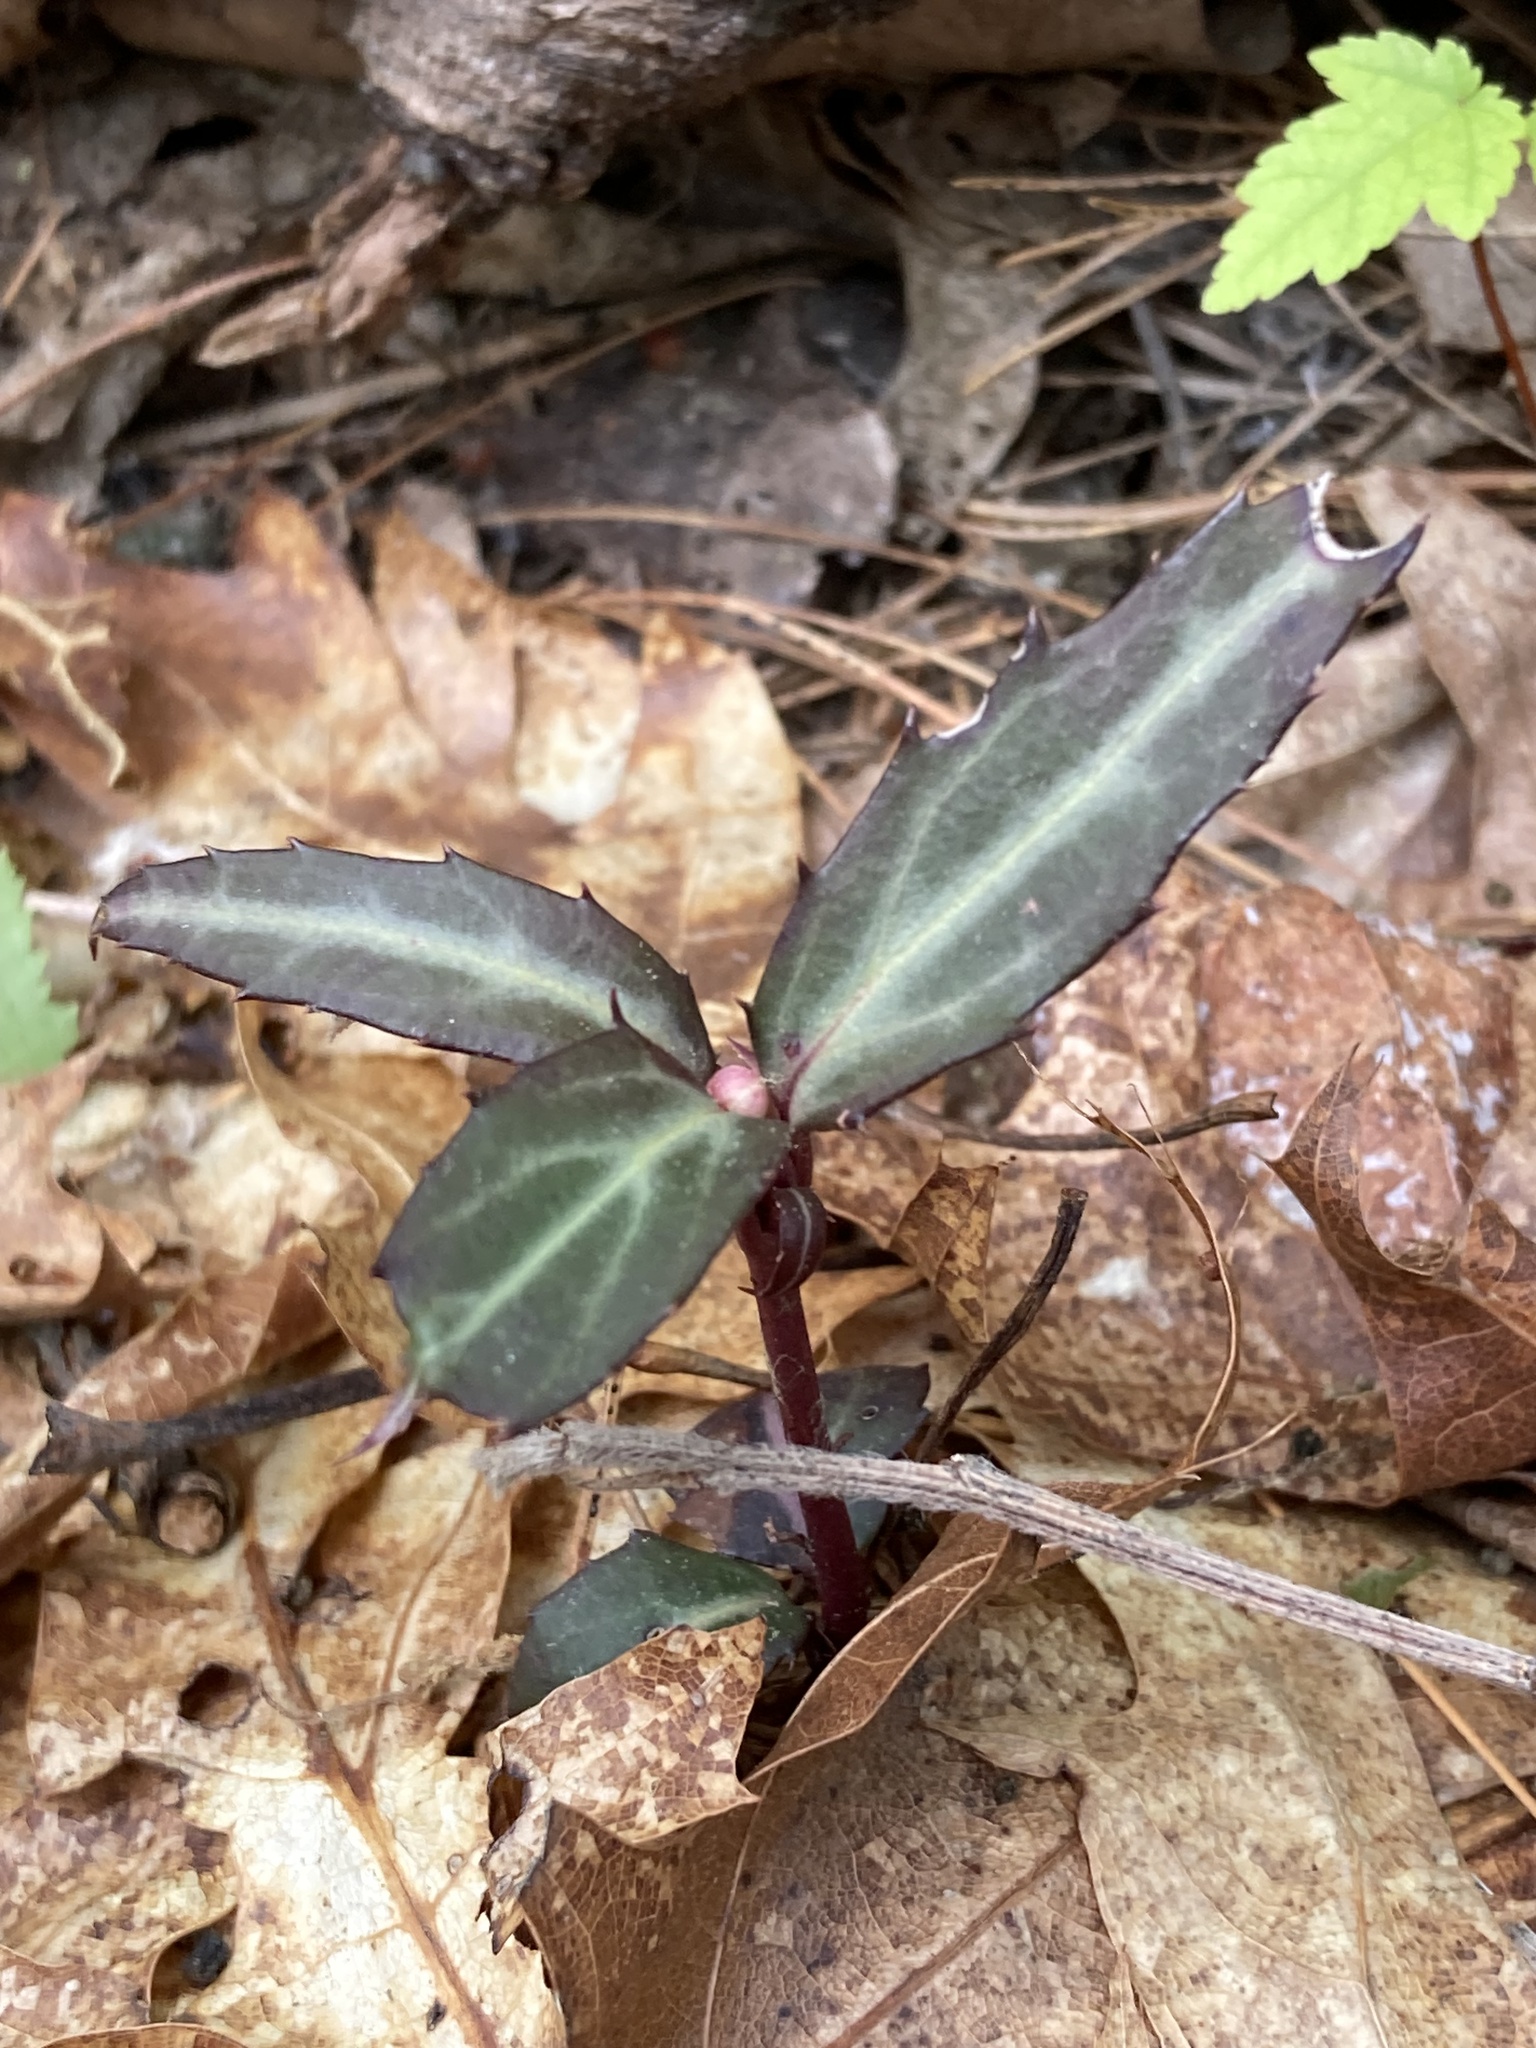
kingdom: Plantae
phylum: Tracheophyta
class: Magnoliopsida
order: Ericales
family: Ericaceae
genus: Chimaphila
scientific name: Chimaphila maculata
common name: Spotted pipsissewa
